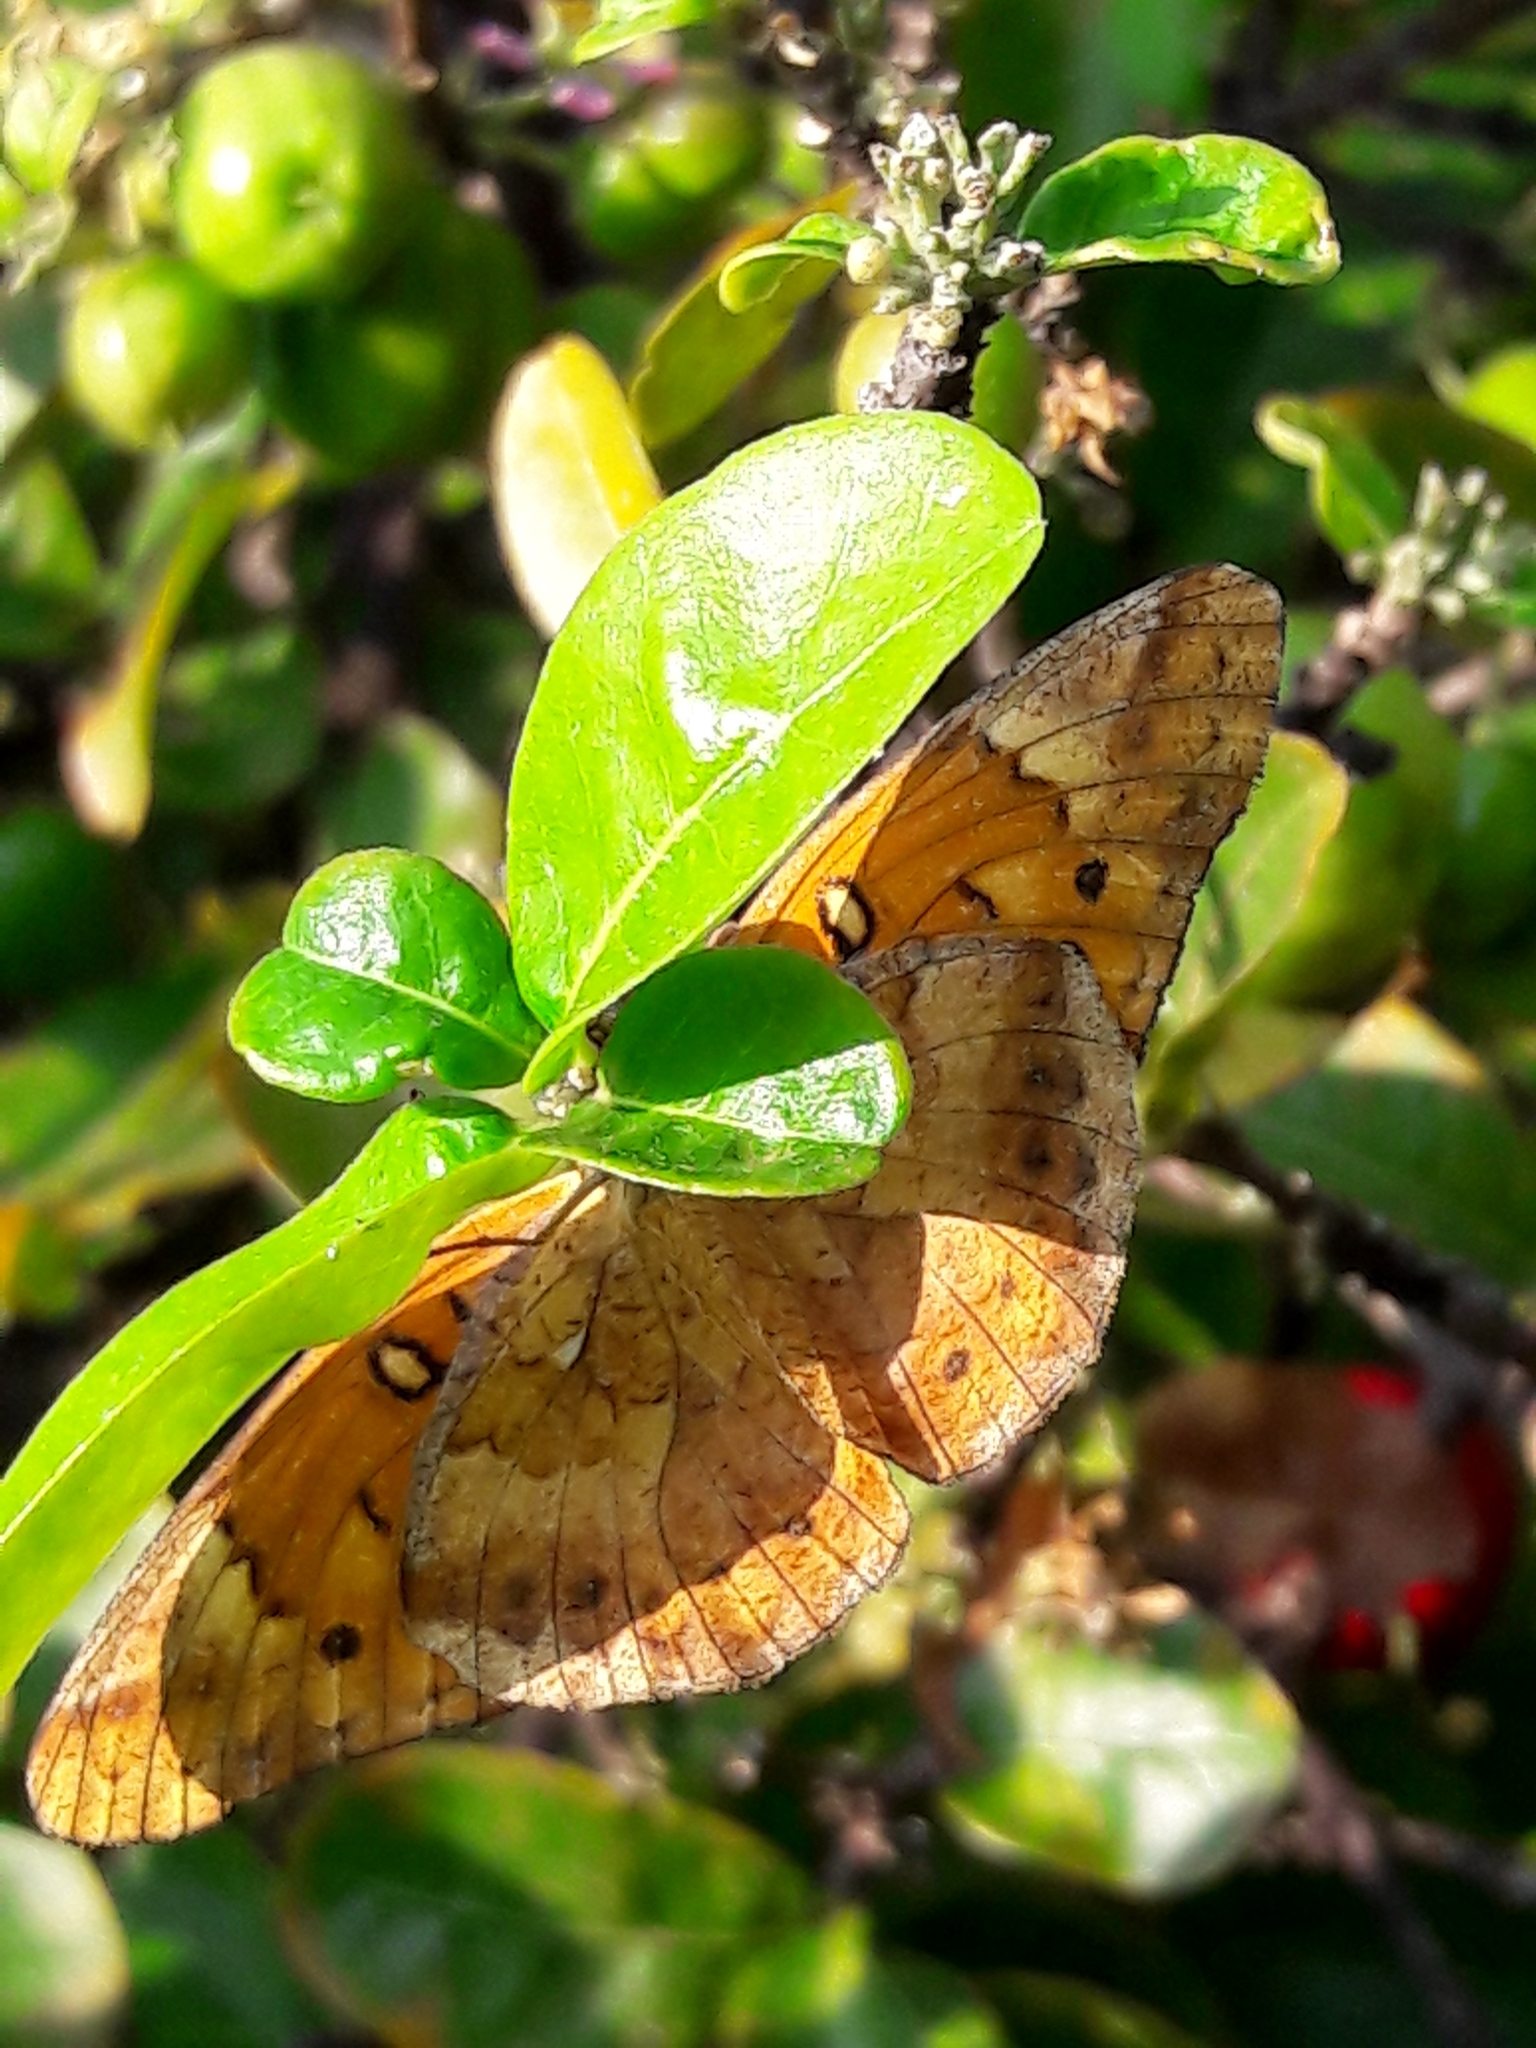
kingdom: Animalia
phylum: Arthropoda
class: Insecta
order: Lepidoptera
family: Nymphalidae
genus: Euptoieta
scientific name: Euptoieta hegesia
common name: Mexican fritillary
